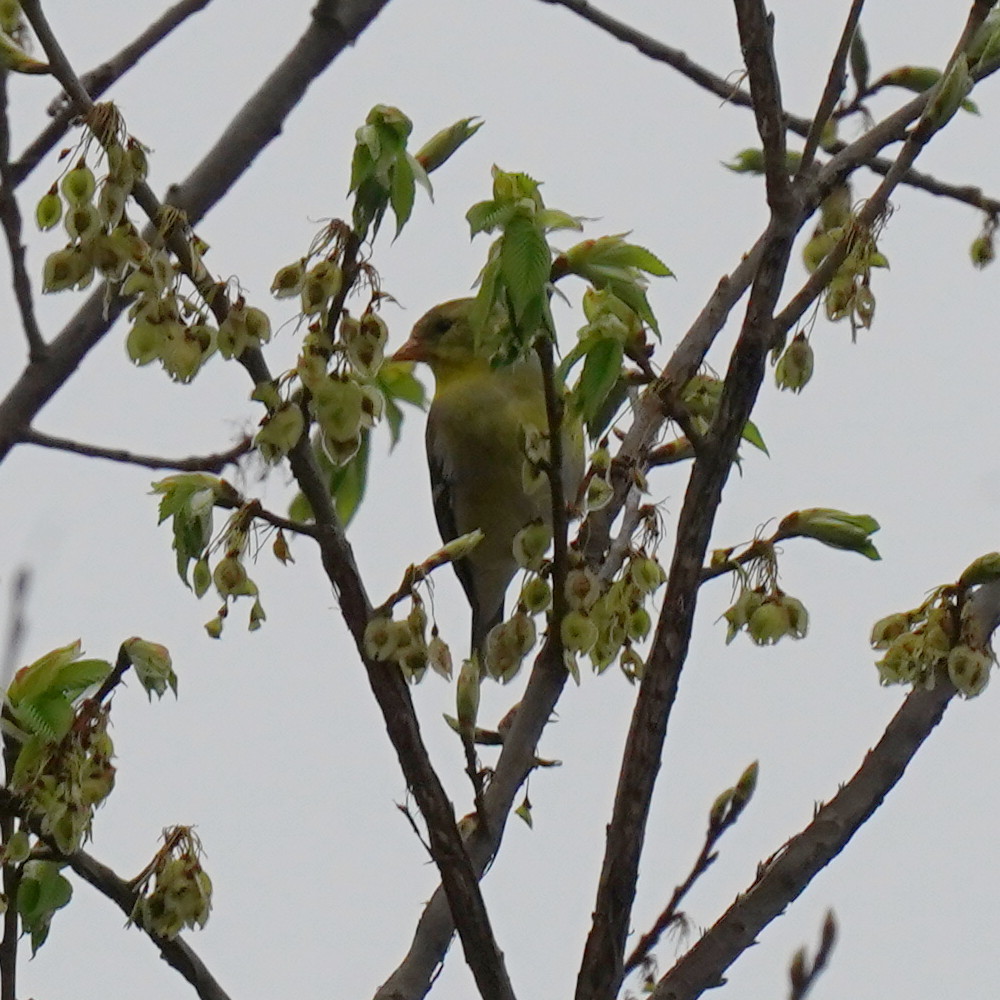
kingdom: Animalia
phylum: Chordata
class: Aves
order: Passeriformes
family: Fringillidae
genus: Spinus
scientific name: Spinus tristis
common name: American goldfinch
